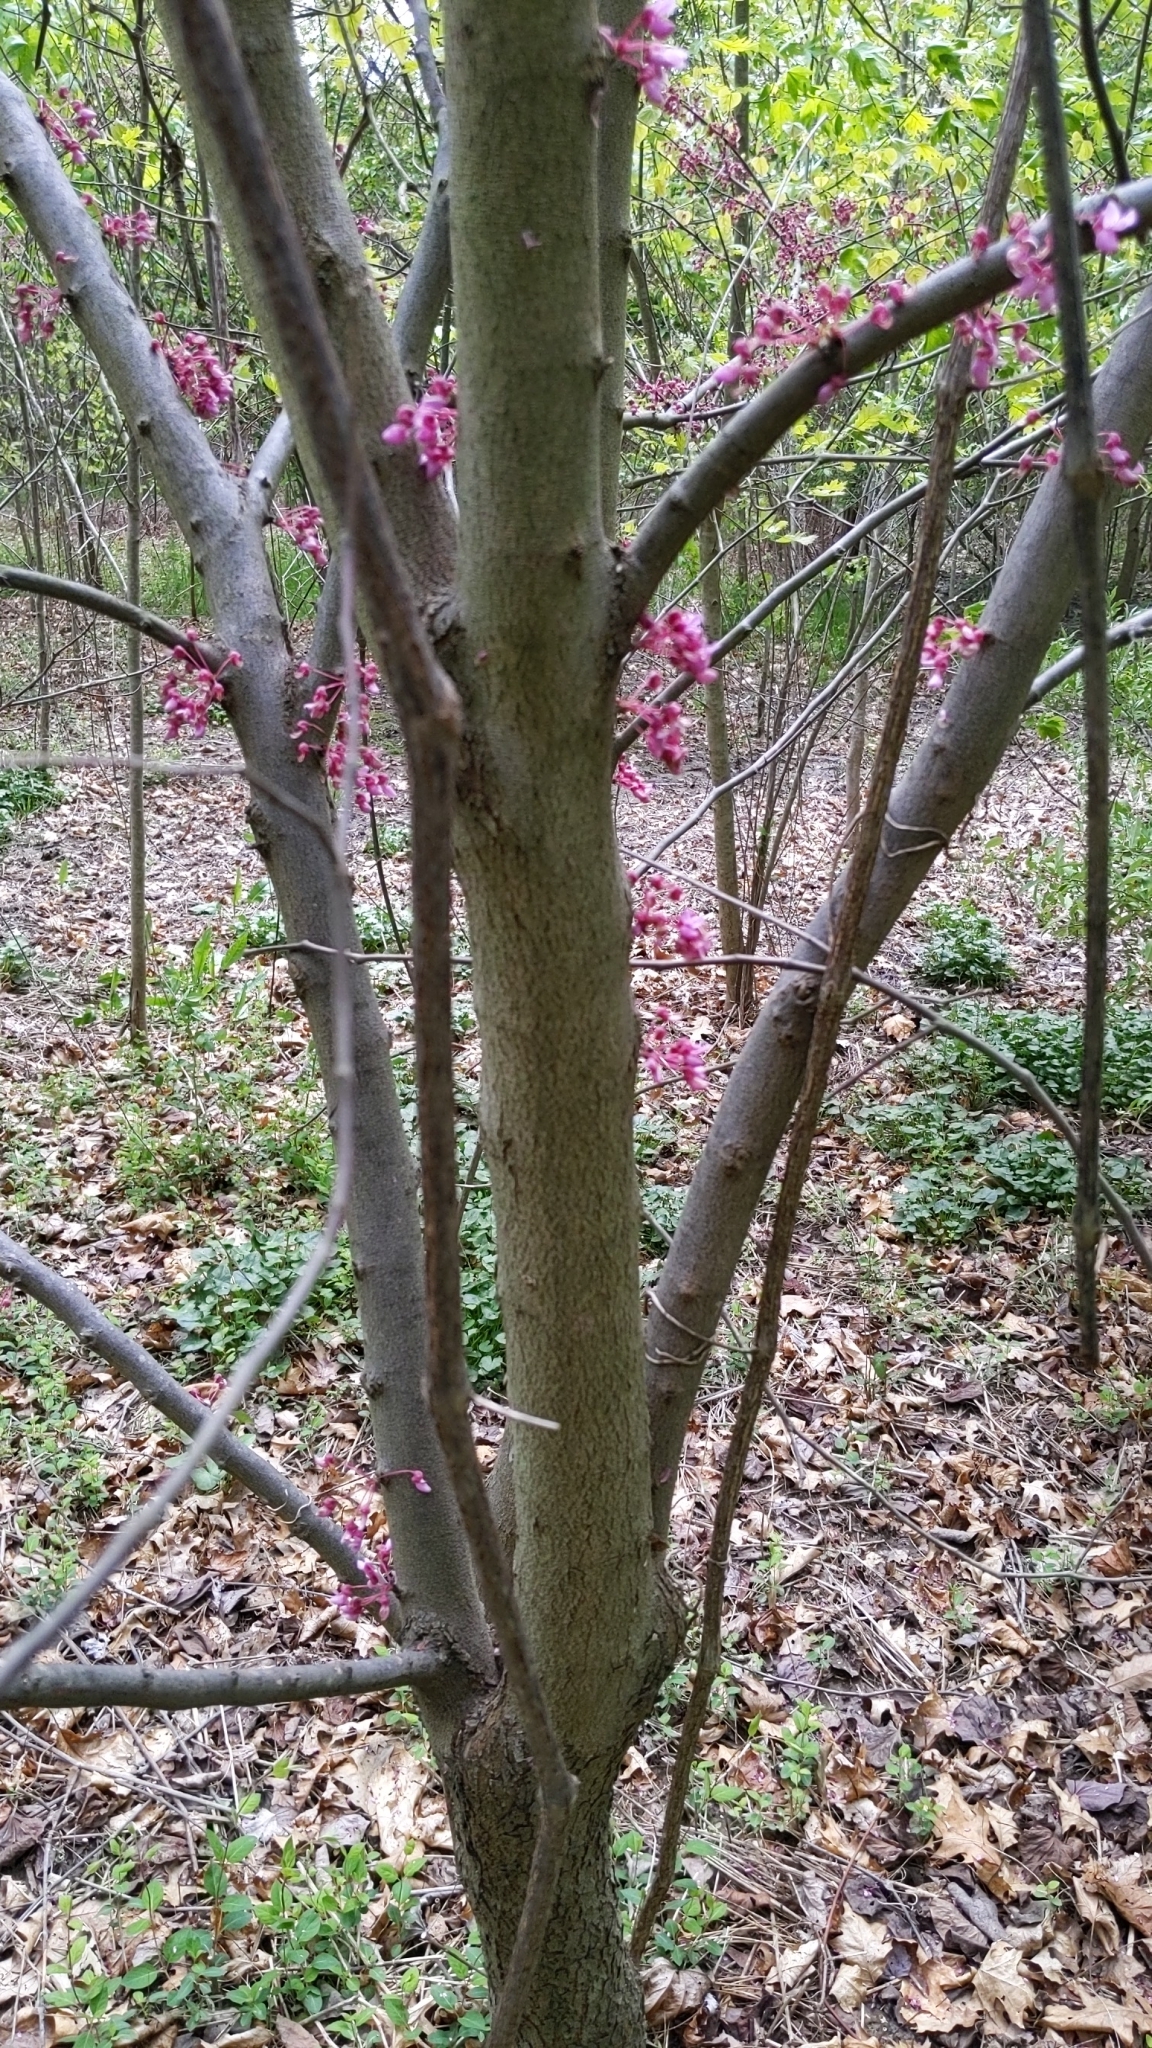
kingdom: Plantae
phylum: Tracheophyta
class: Magnoliopsida
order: Fabales
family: Fabaceae
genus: Cercis
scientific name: Cercis canadensis
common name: Eastern redbud
